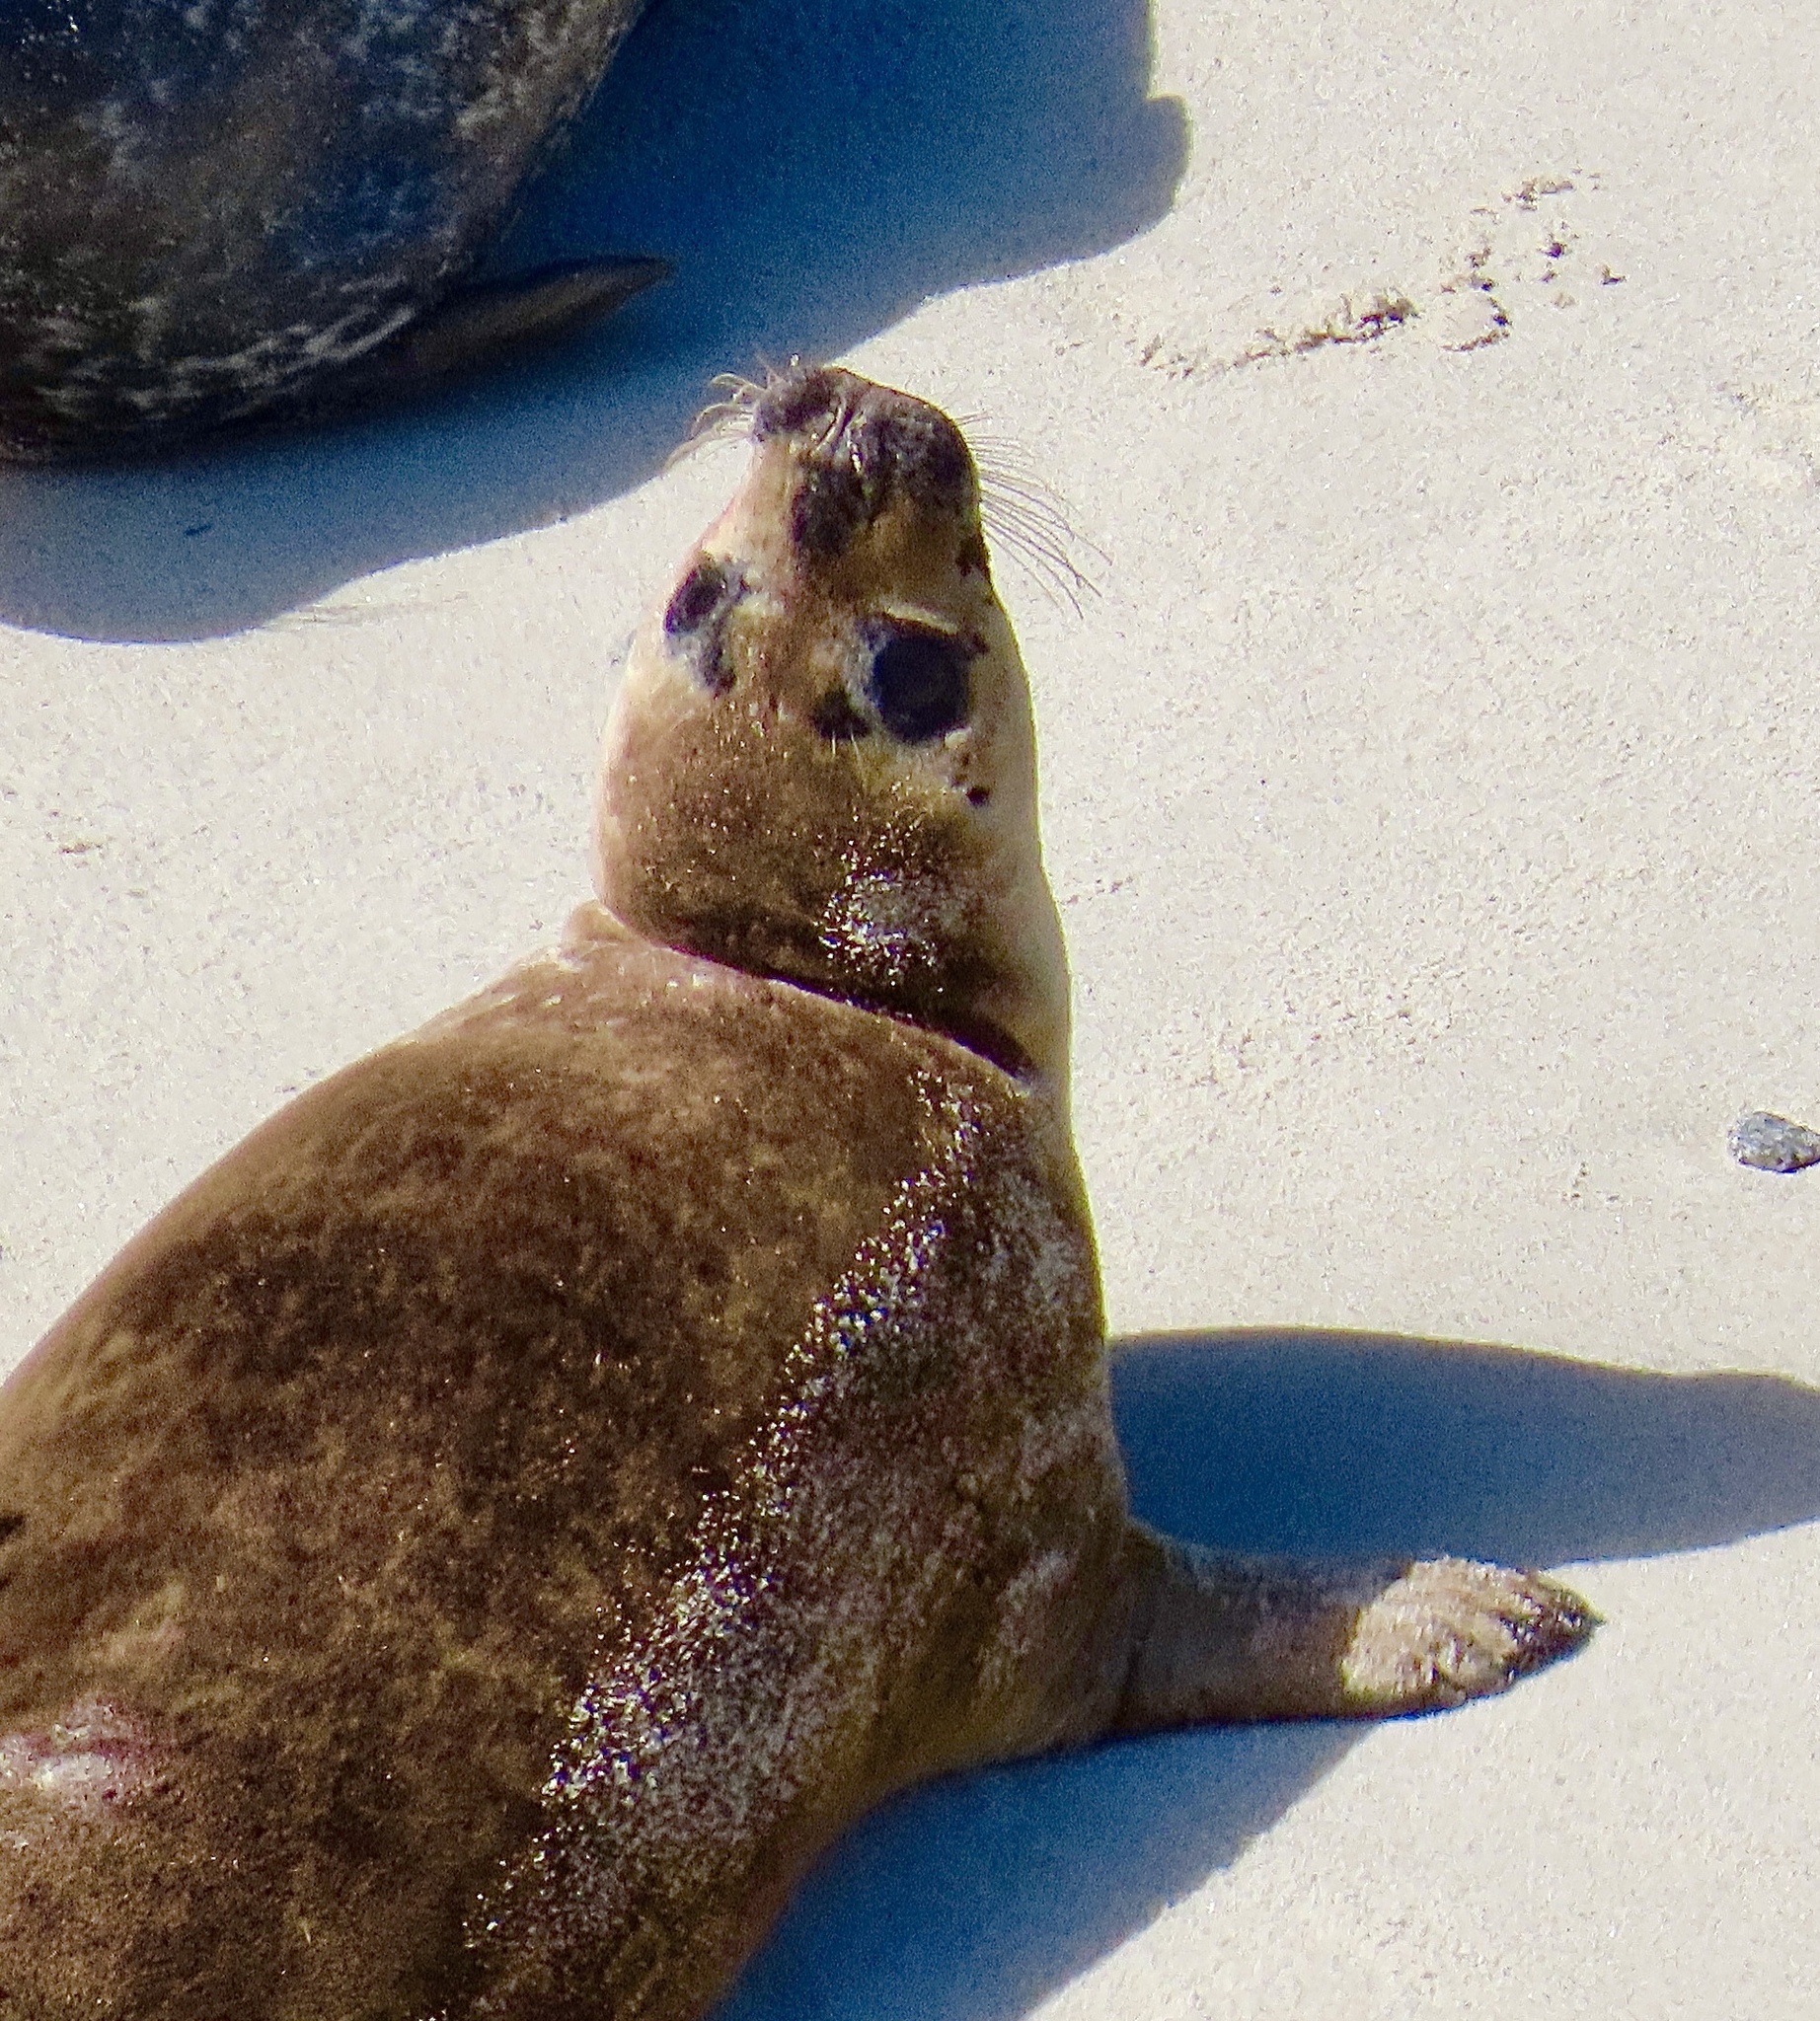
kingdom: Animalia
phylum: Chordata
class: Mammalia
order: Carnivora
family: Phocidae
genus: Phoca
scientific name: Phoca vitulina
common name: Harbor seal
